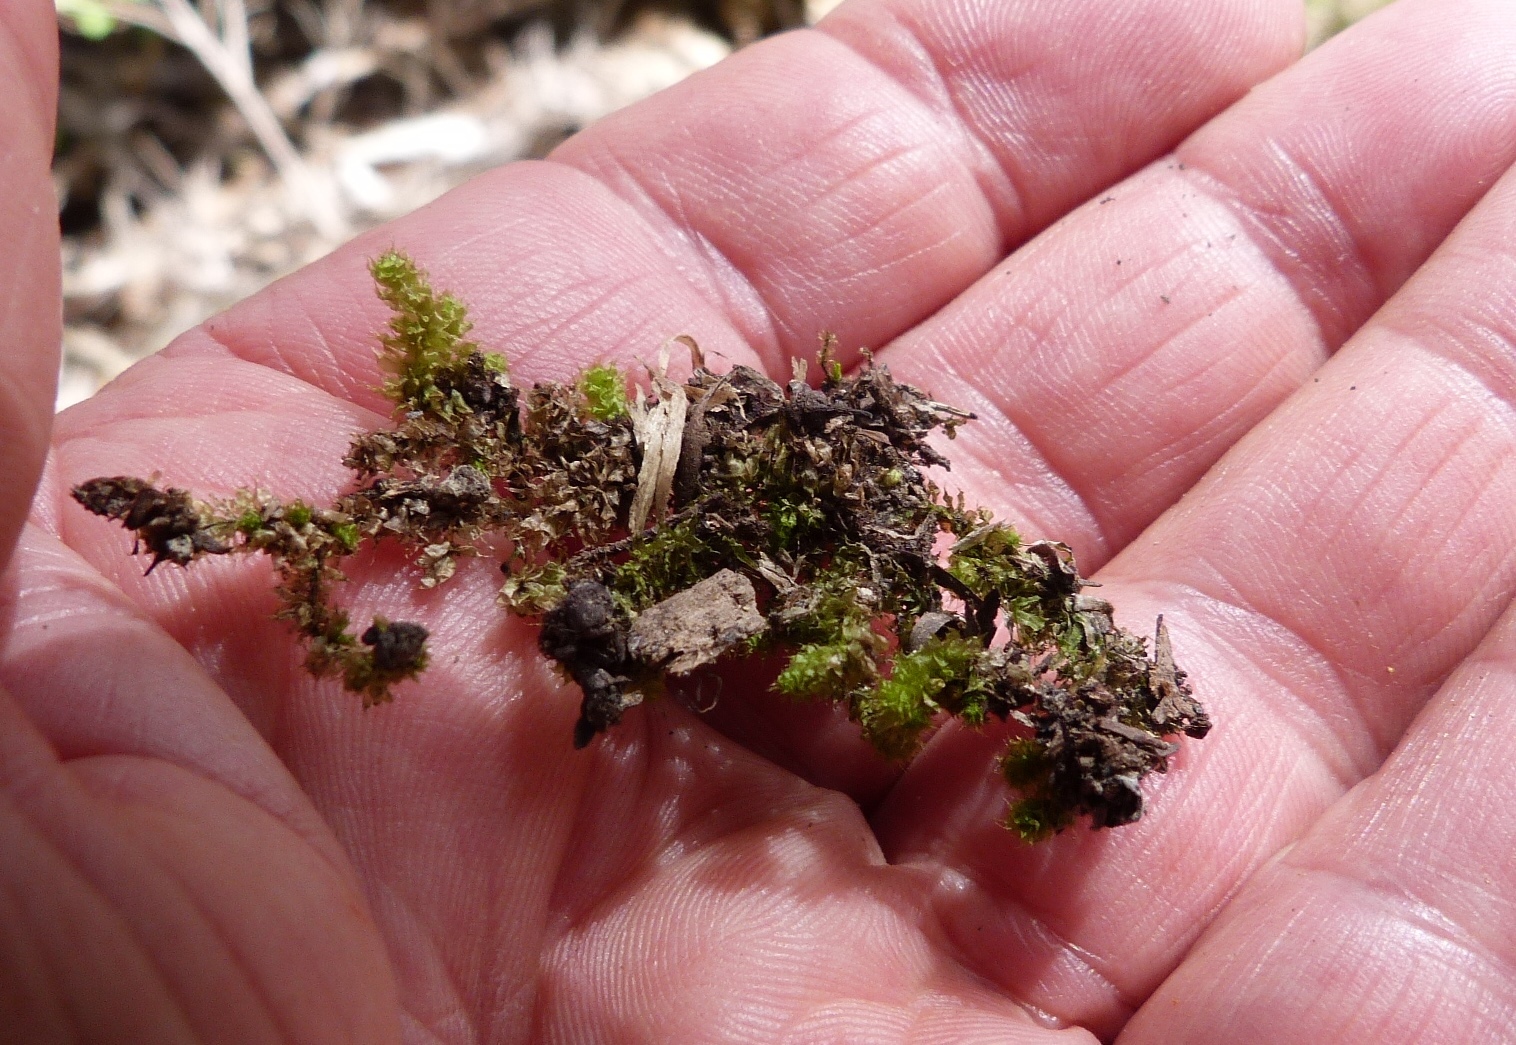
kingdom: Plantae
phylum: Bryophyta
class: Bryopsida
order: Ptychomniales
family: Ptychomniaceae
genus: Ptychomnion
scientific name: Ptychomnion aciculare
